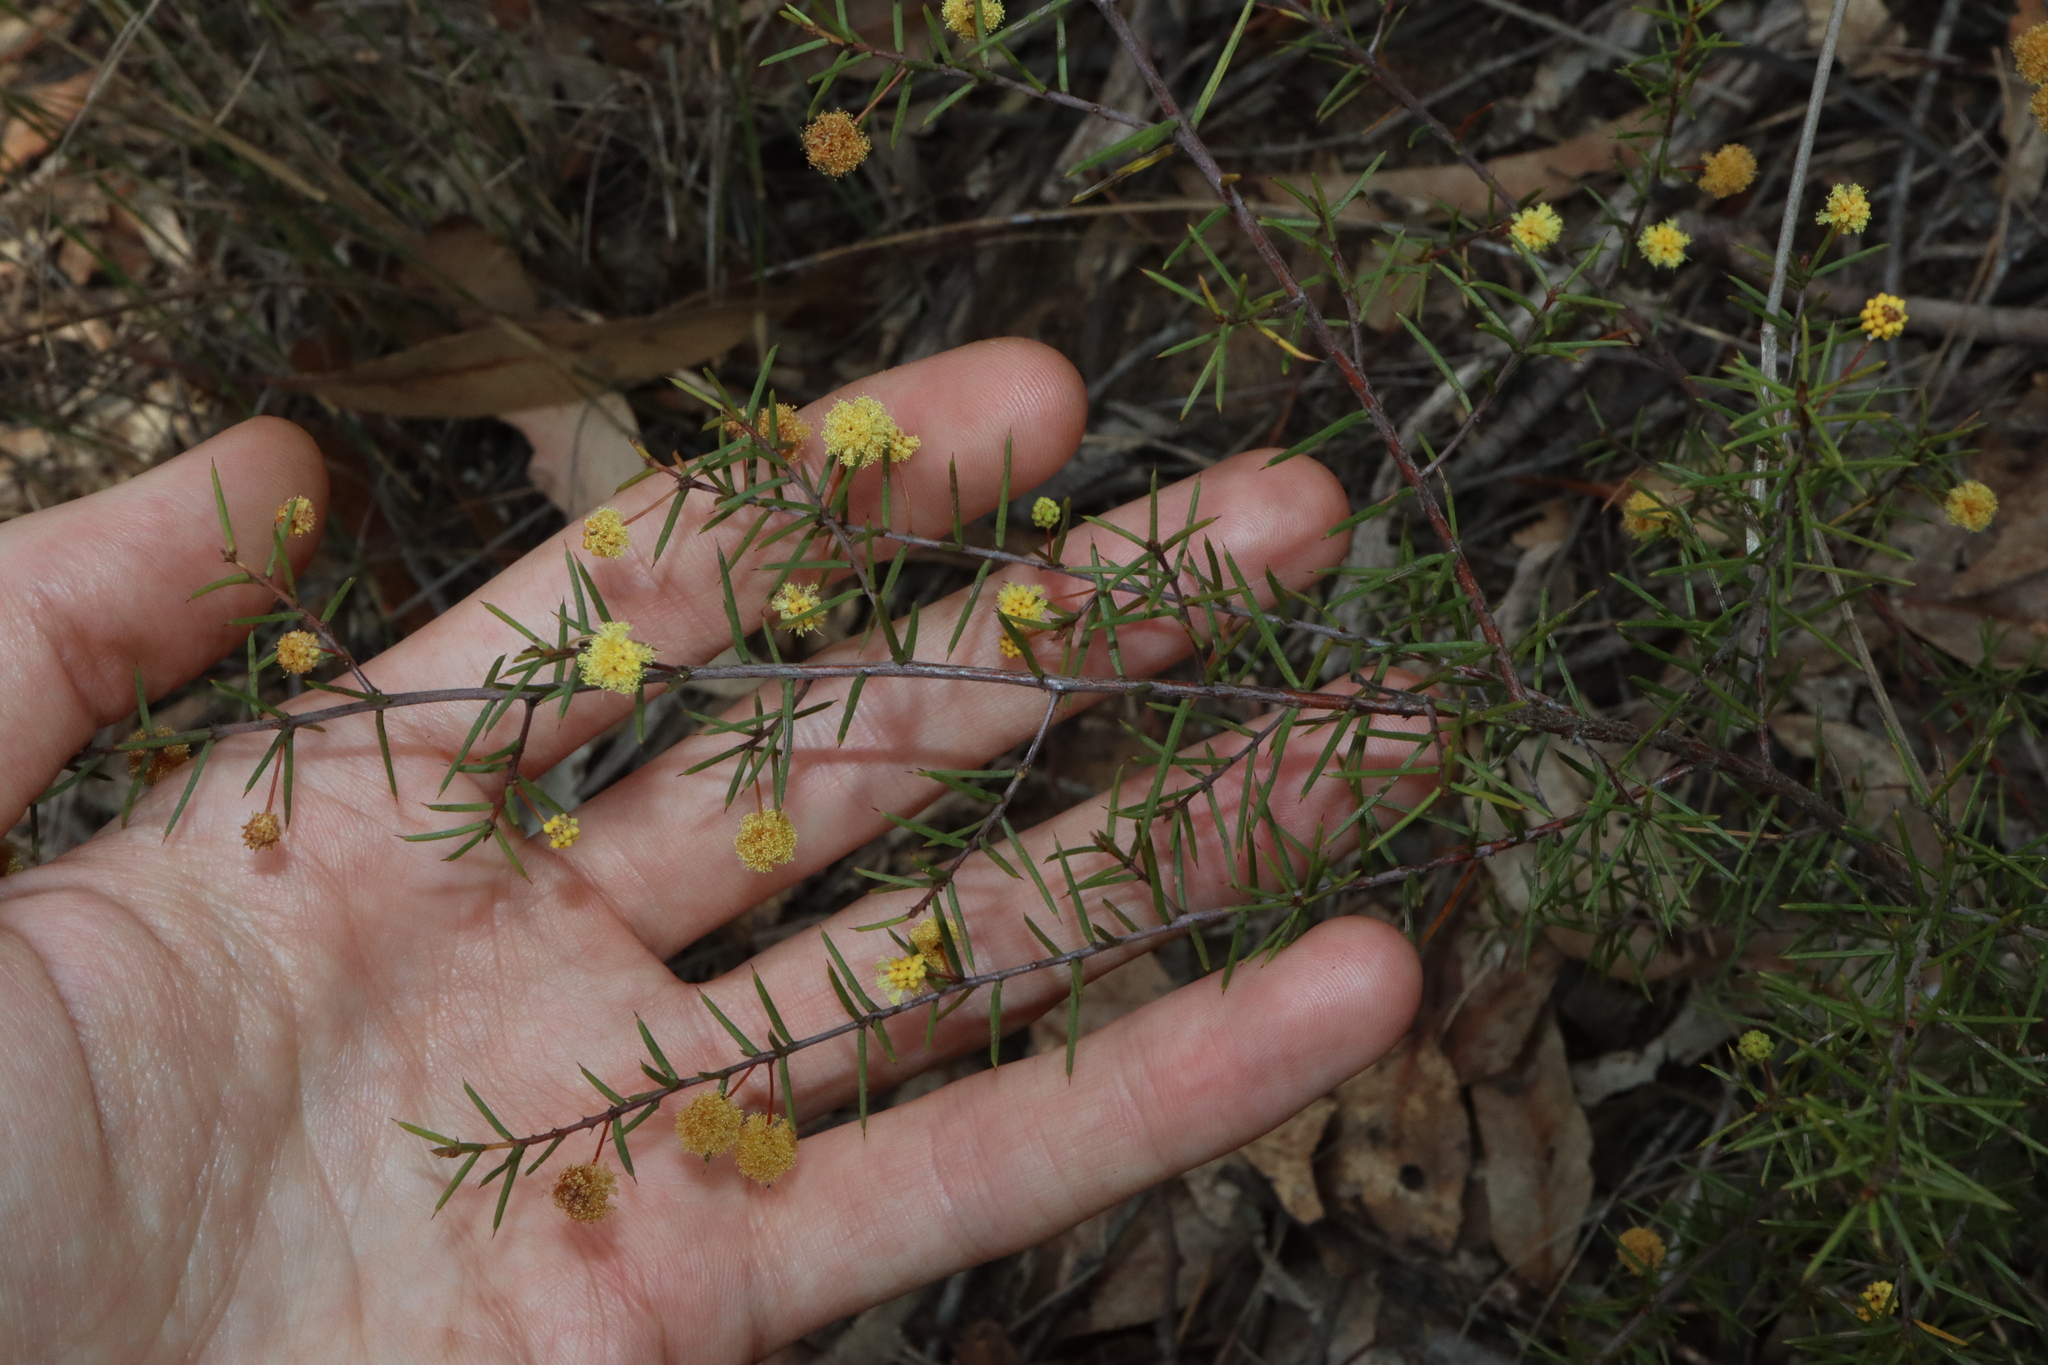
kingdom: Plantae
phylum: Tracheophyta
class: Magnoliopsida
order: Fabales
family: Fabaceae
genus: Acacia
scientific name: Acacia brownii
